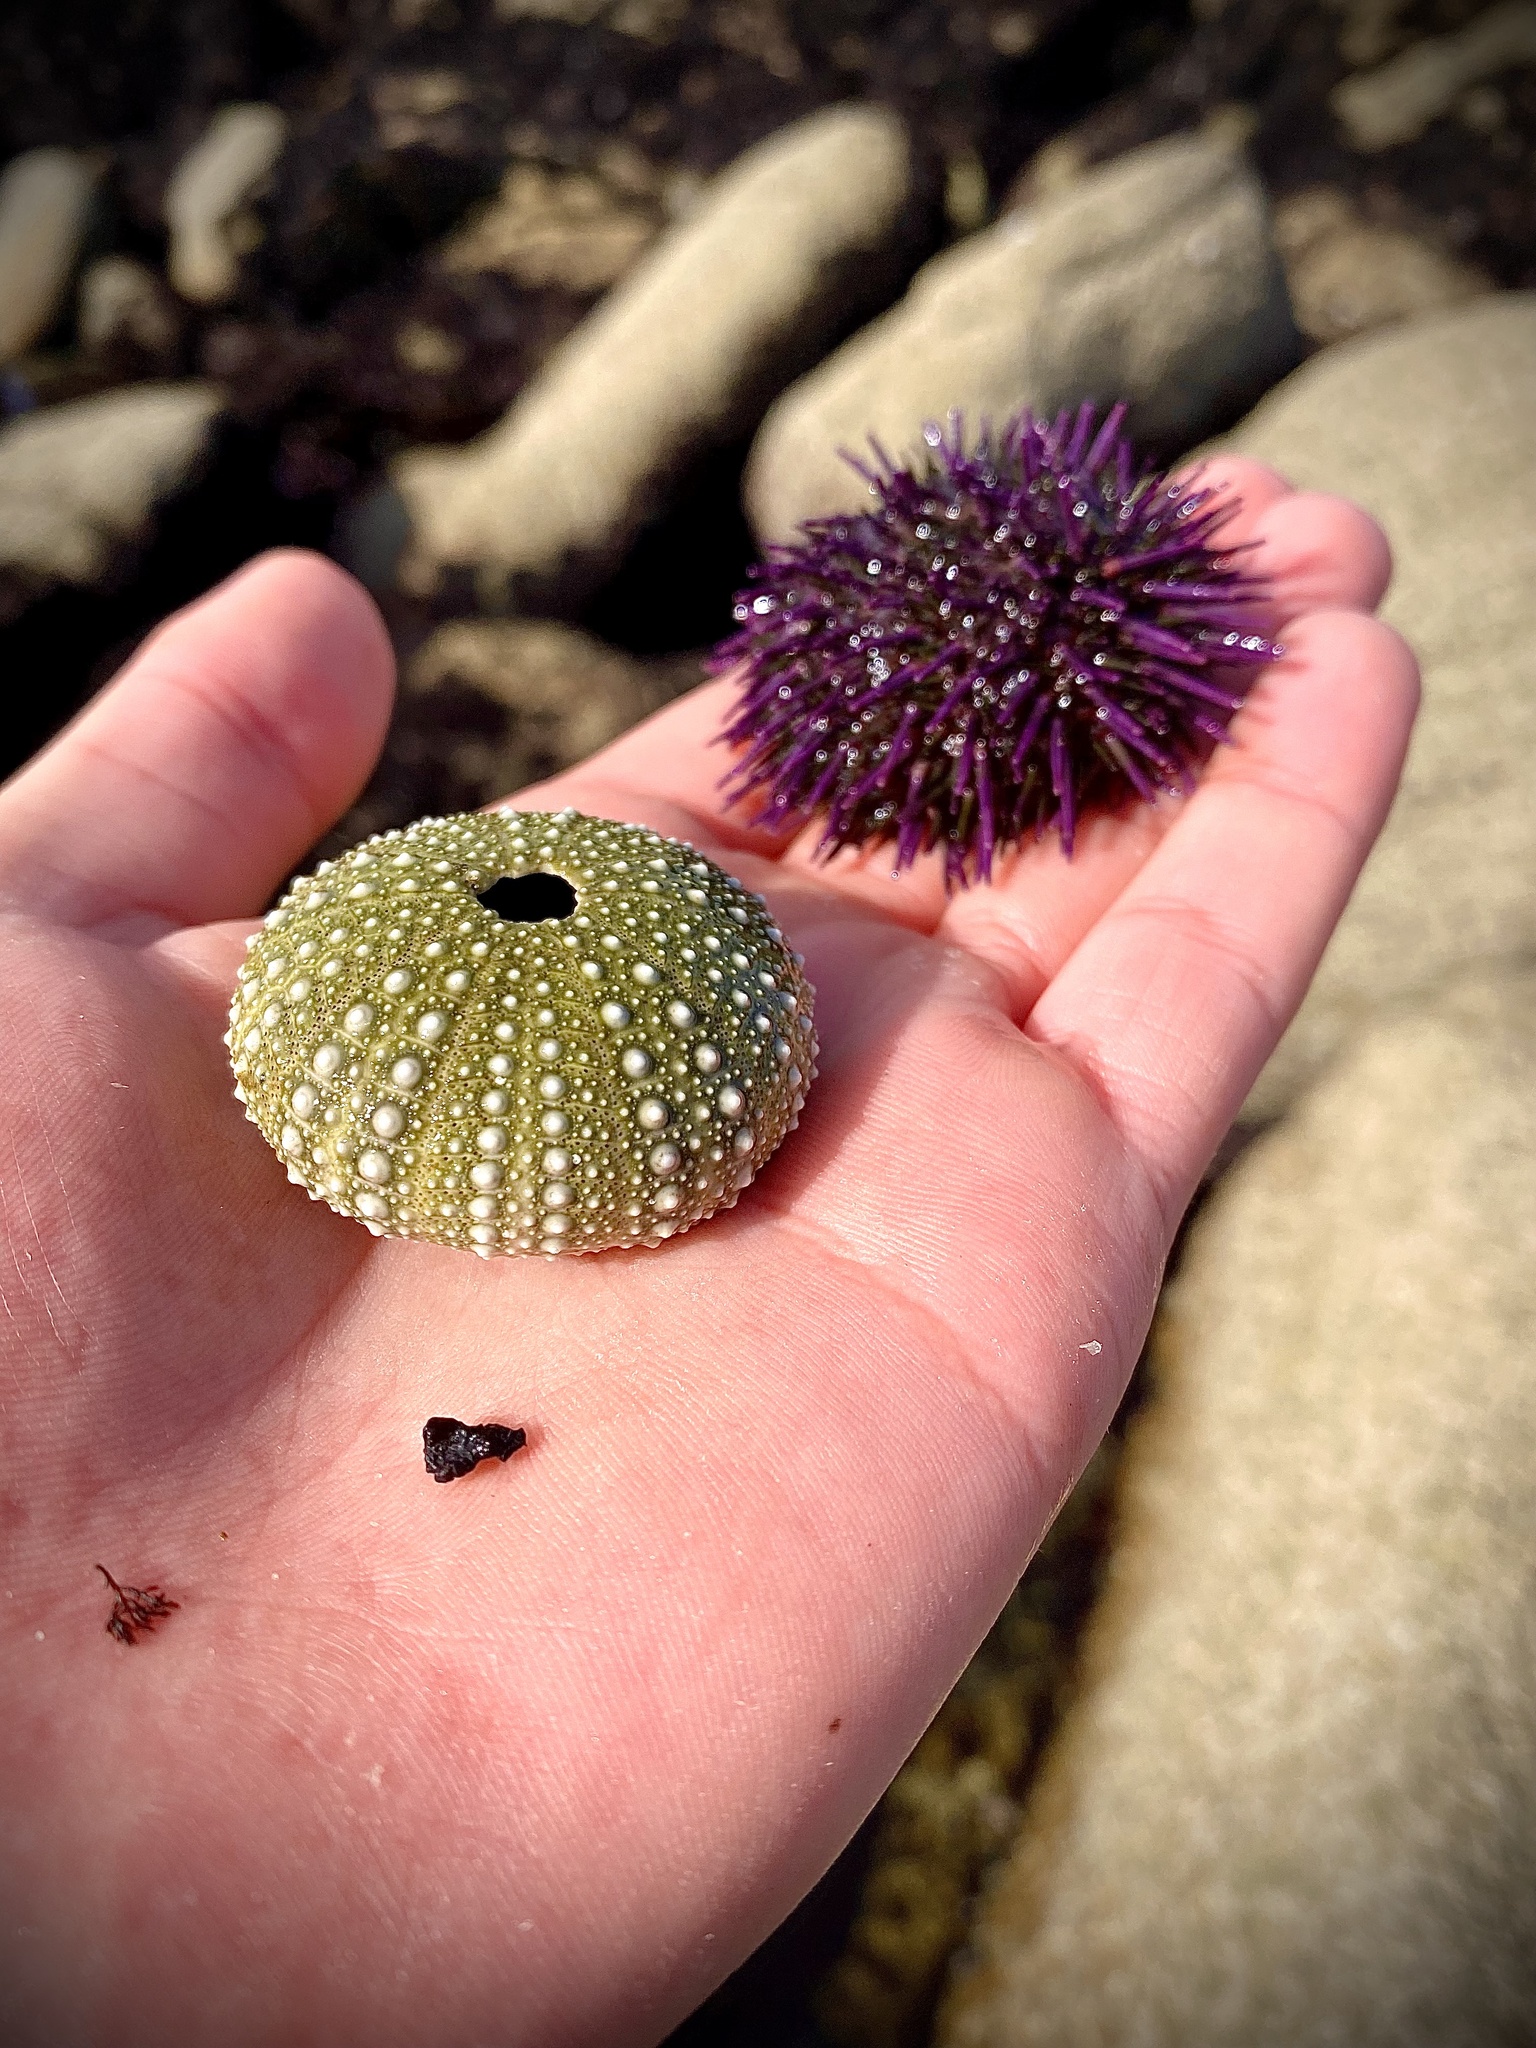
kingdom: Animalia
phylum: Echinodermata
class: Echinoidea
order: Camarodonta
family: Strongylocentrotidae
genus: Strongylocentrotus
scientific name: Strongylocentrotus purpuratus
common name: Purple sea urchin
